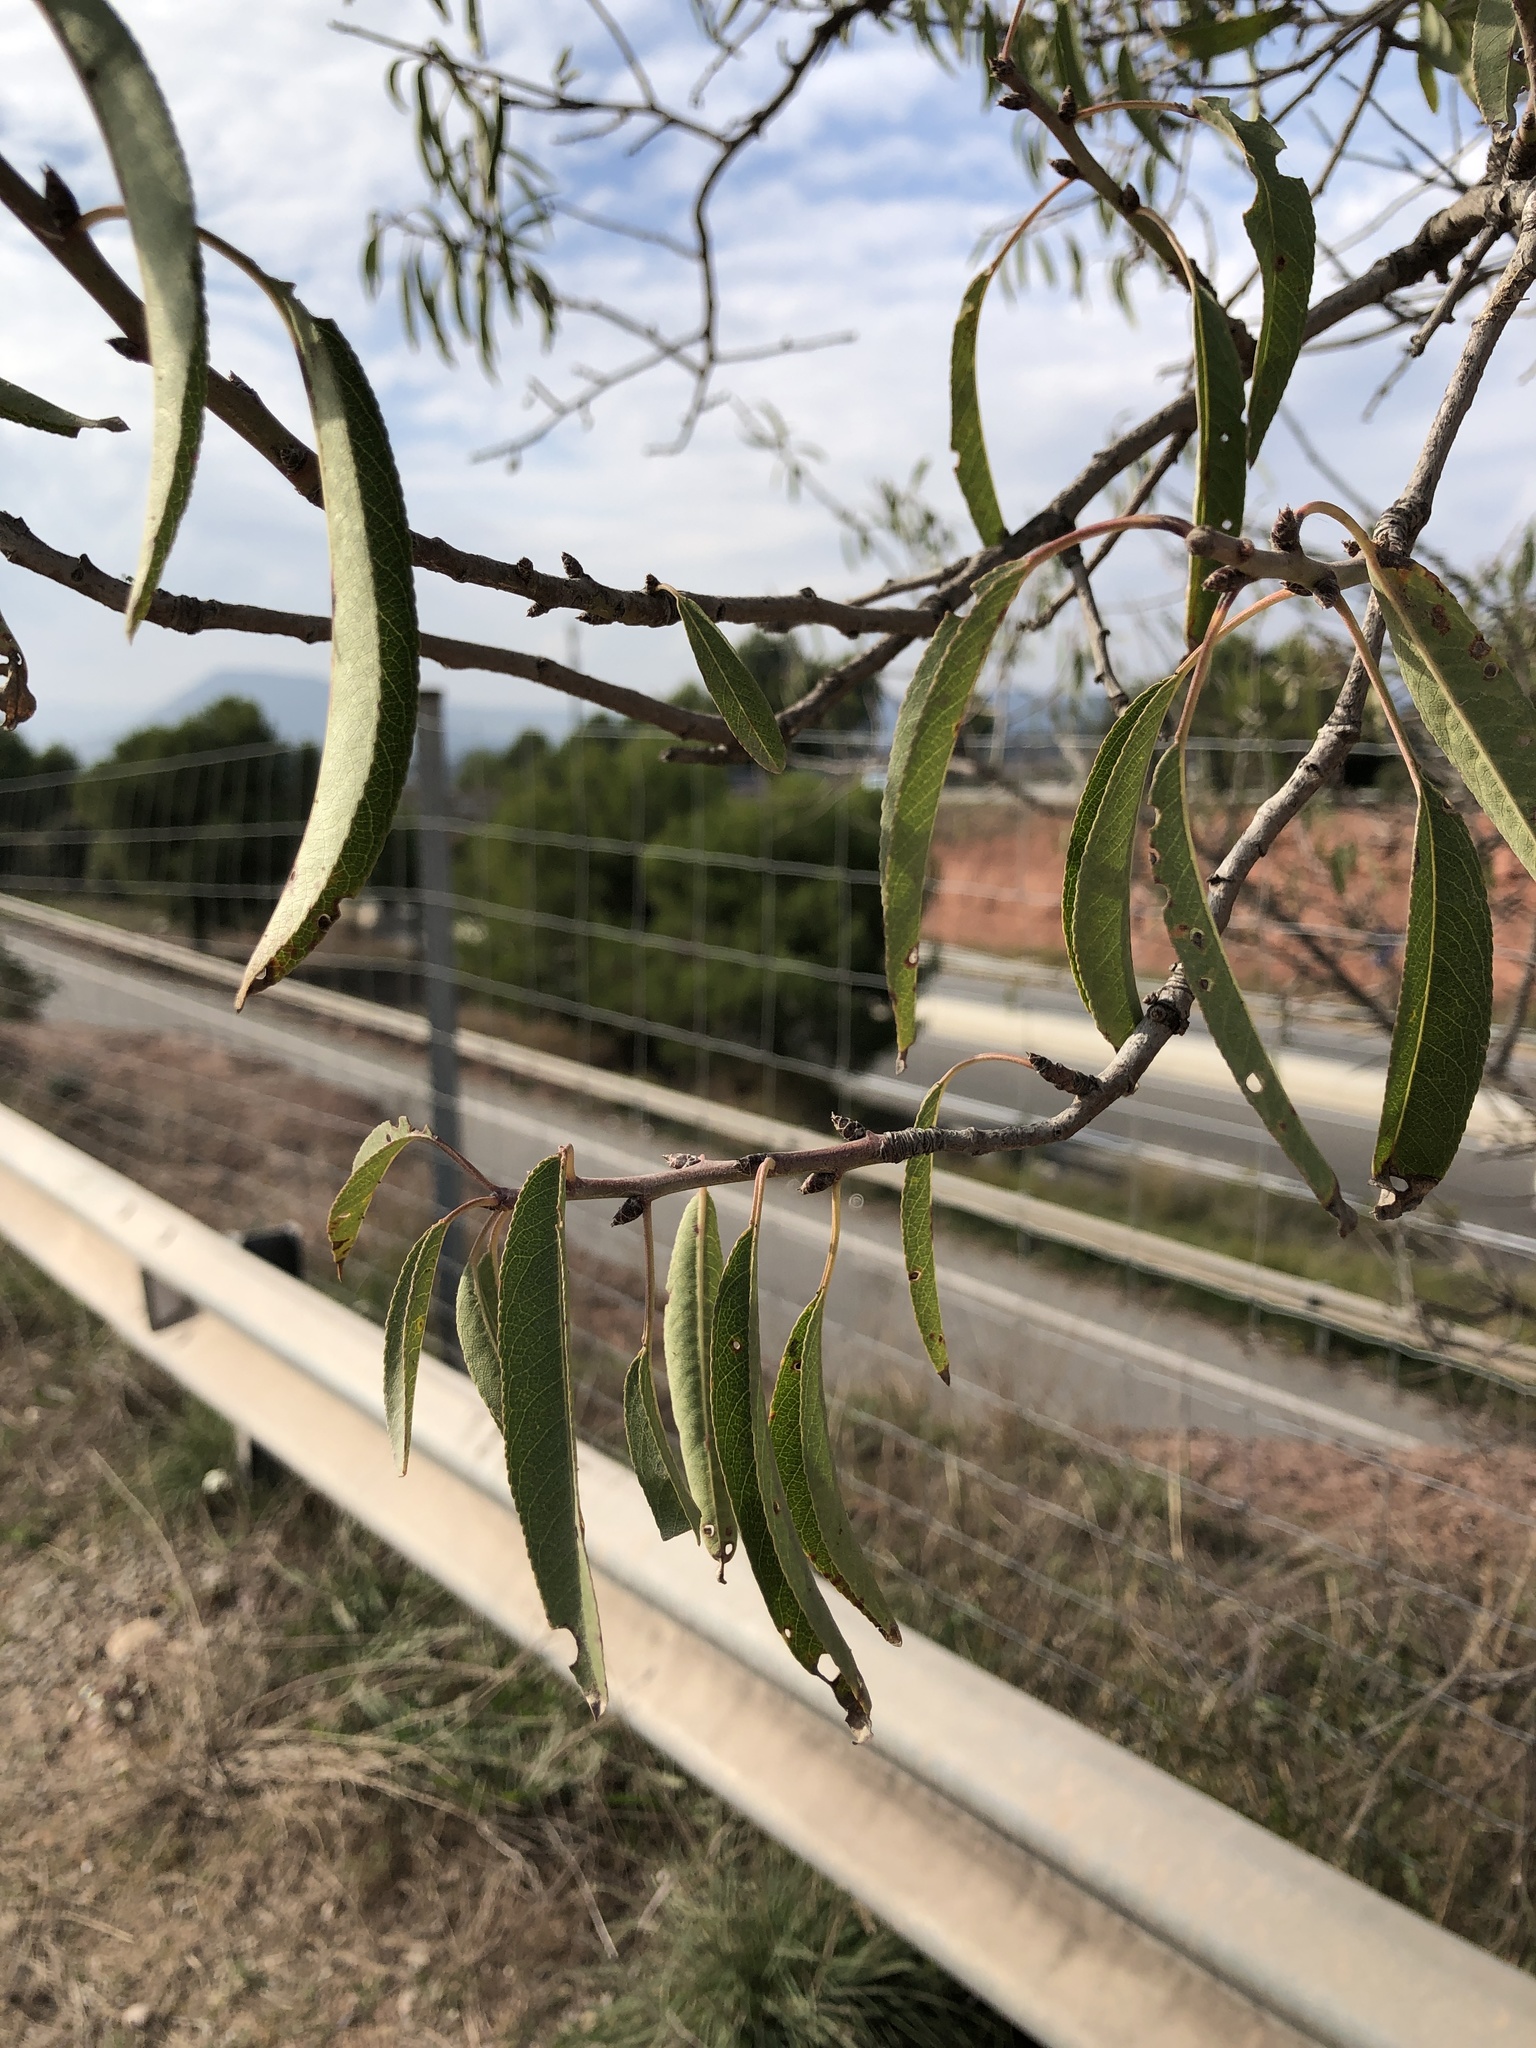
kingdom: Plantae
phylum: Tracheophyta
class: Magnoliopsida
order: Rosales
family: Rosaceae
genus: Prunus
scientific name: Prunus amygdalus
